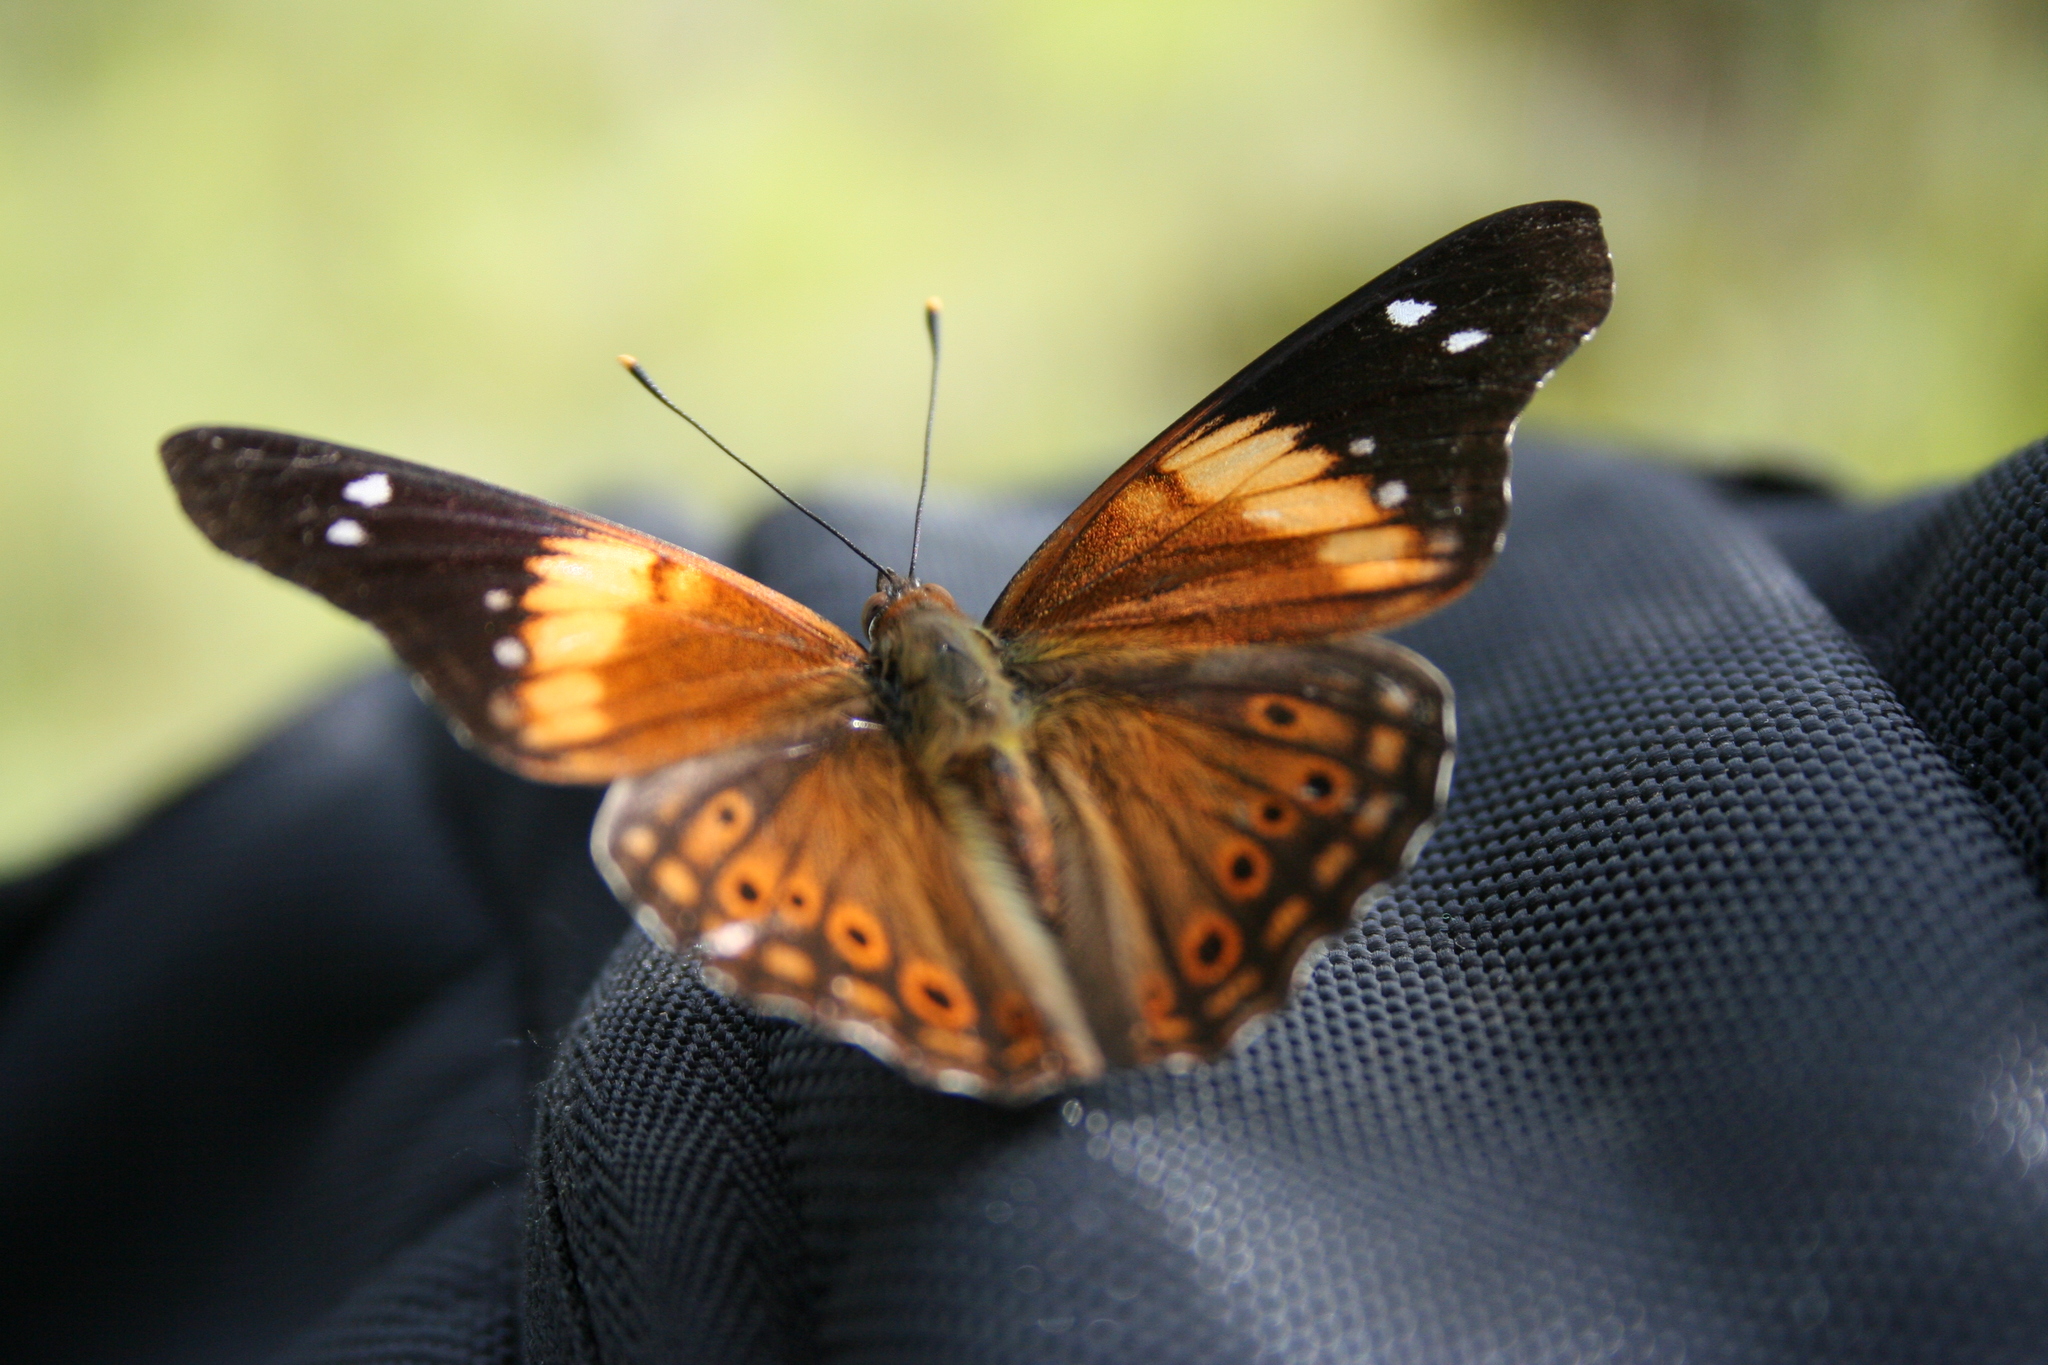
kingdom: Animalia
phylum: Arthropoda
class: Insecta
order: Lepidoptera
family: Nymphalidae
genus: Asterocampa
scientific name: Asterocampa idyja
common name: Dusky emperor
